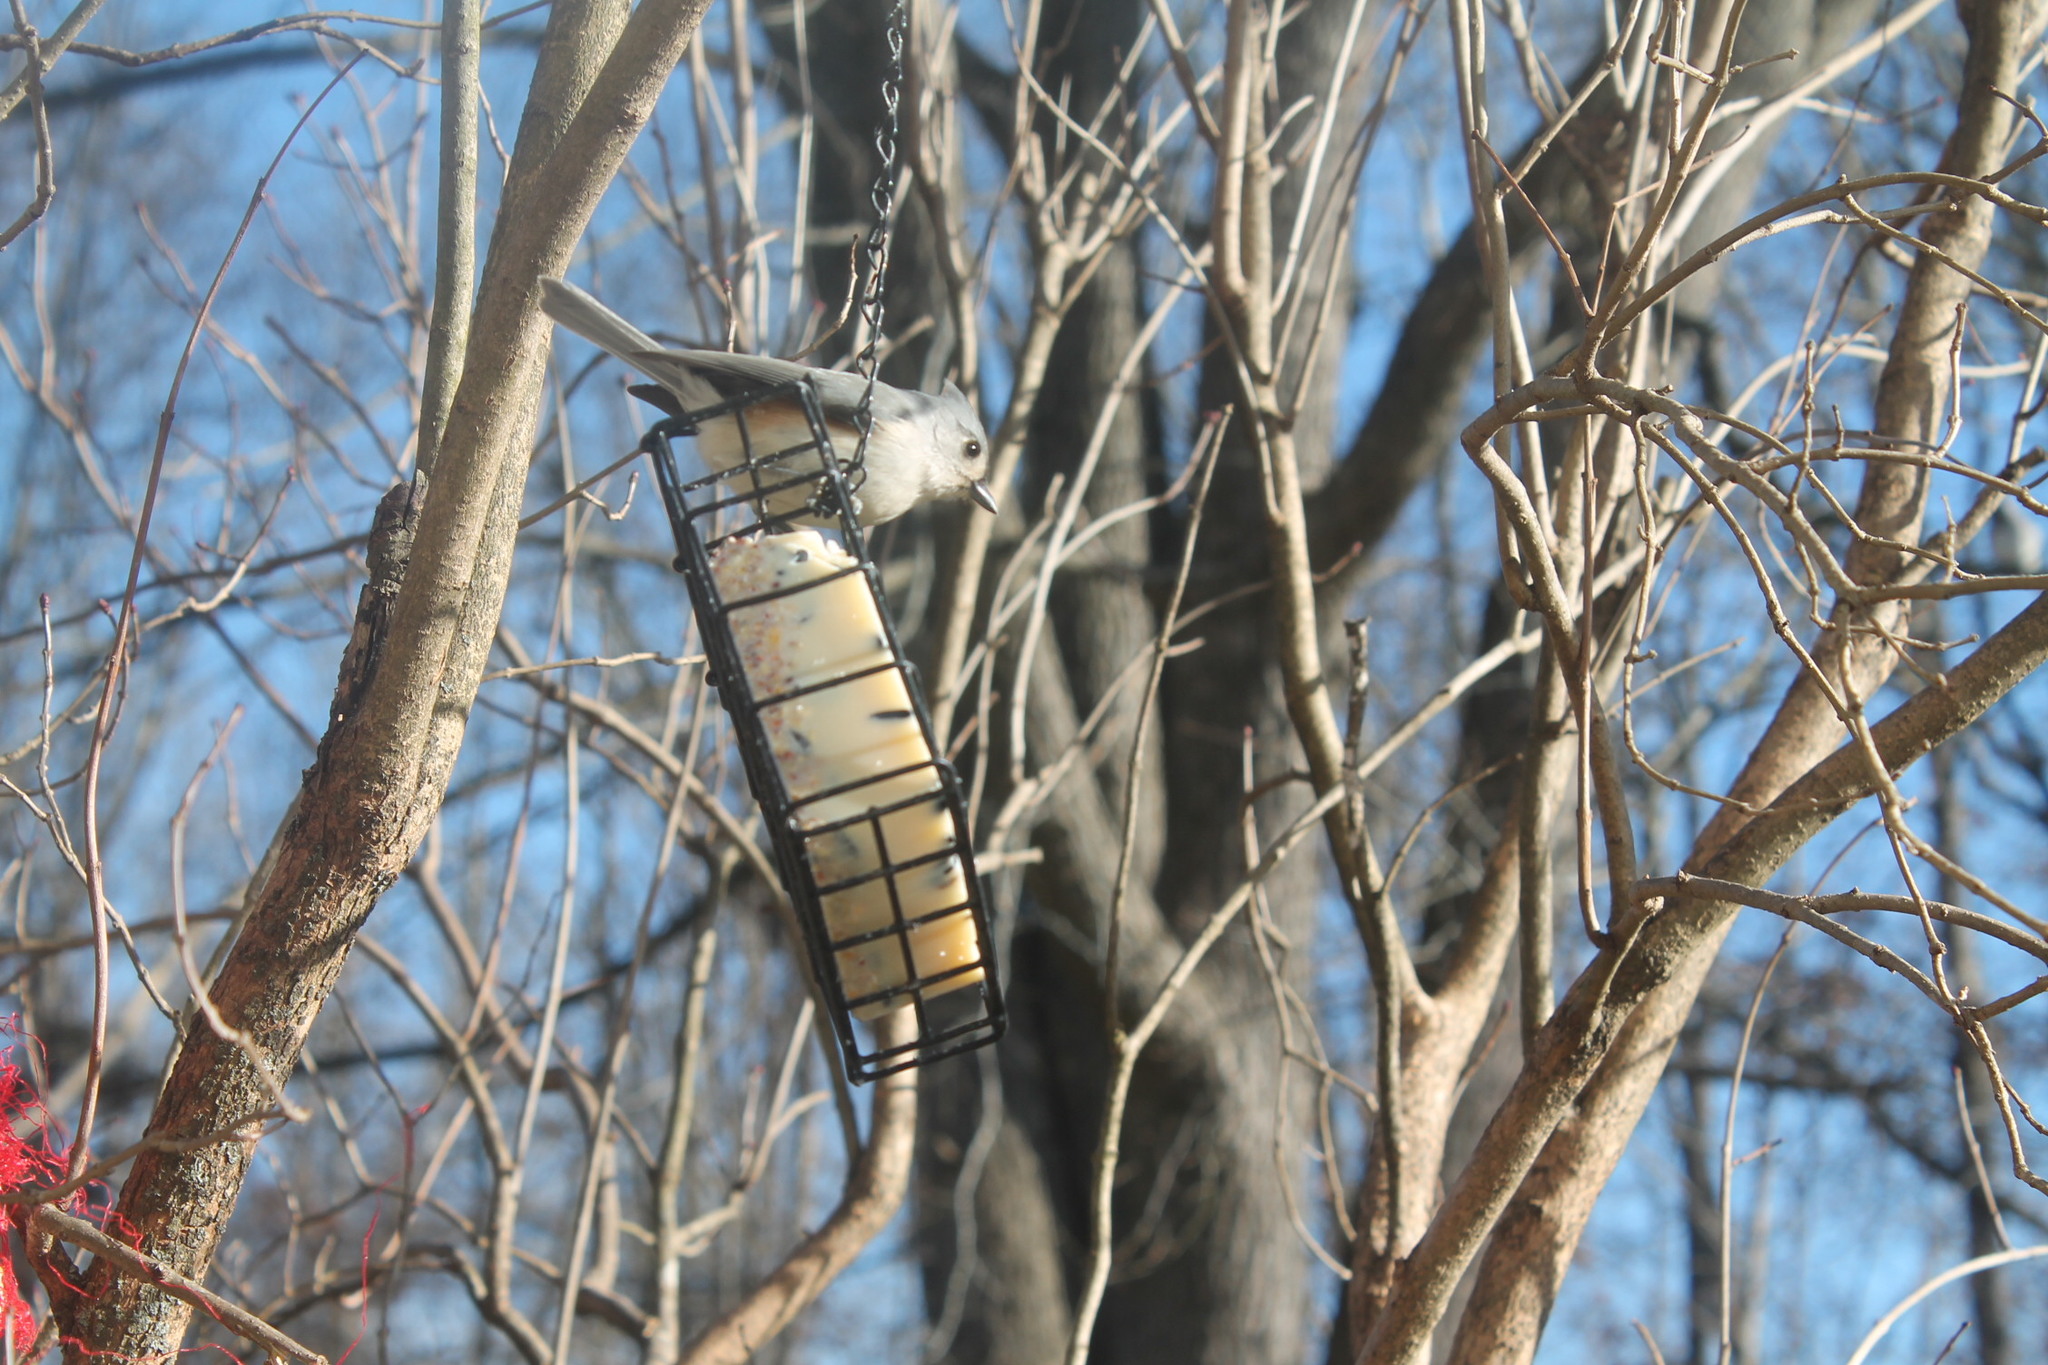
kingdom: Animalia
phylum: Chordata
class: Aves
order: Passeriformes
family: Paridae
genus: Baeolophus
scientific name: Baeolophus bicolor
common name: Tufted titmouse
